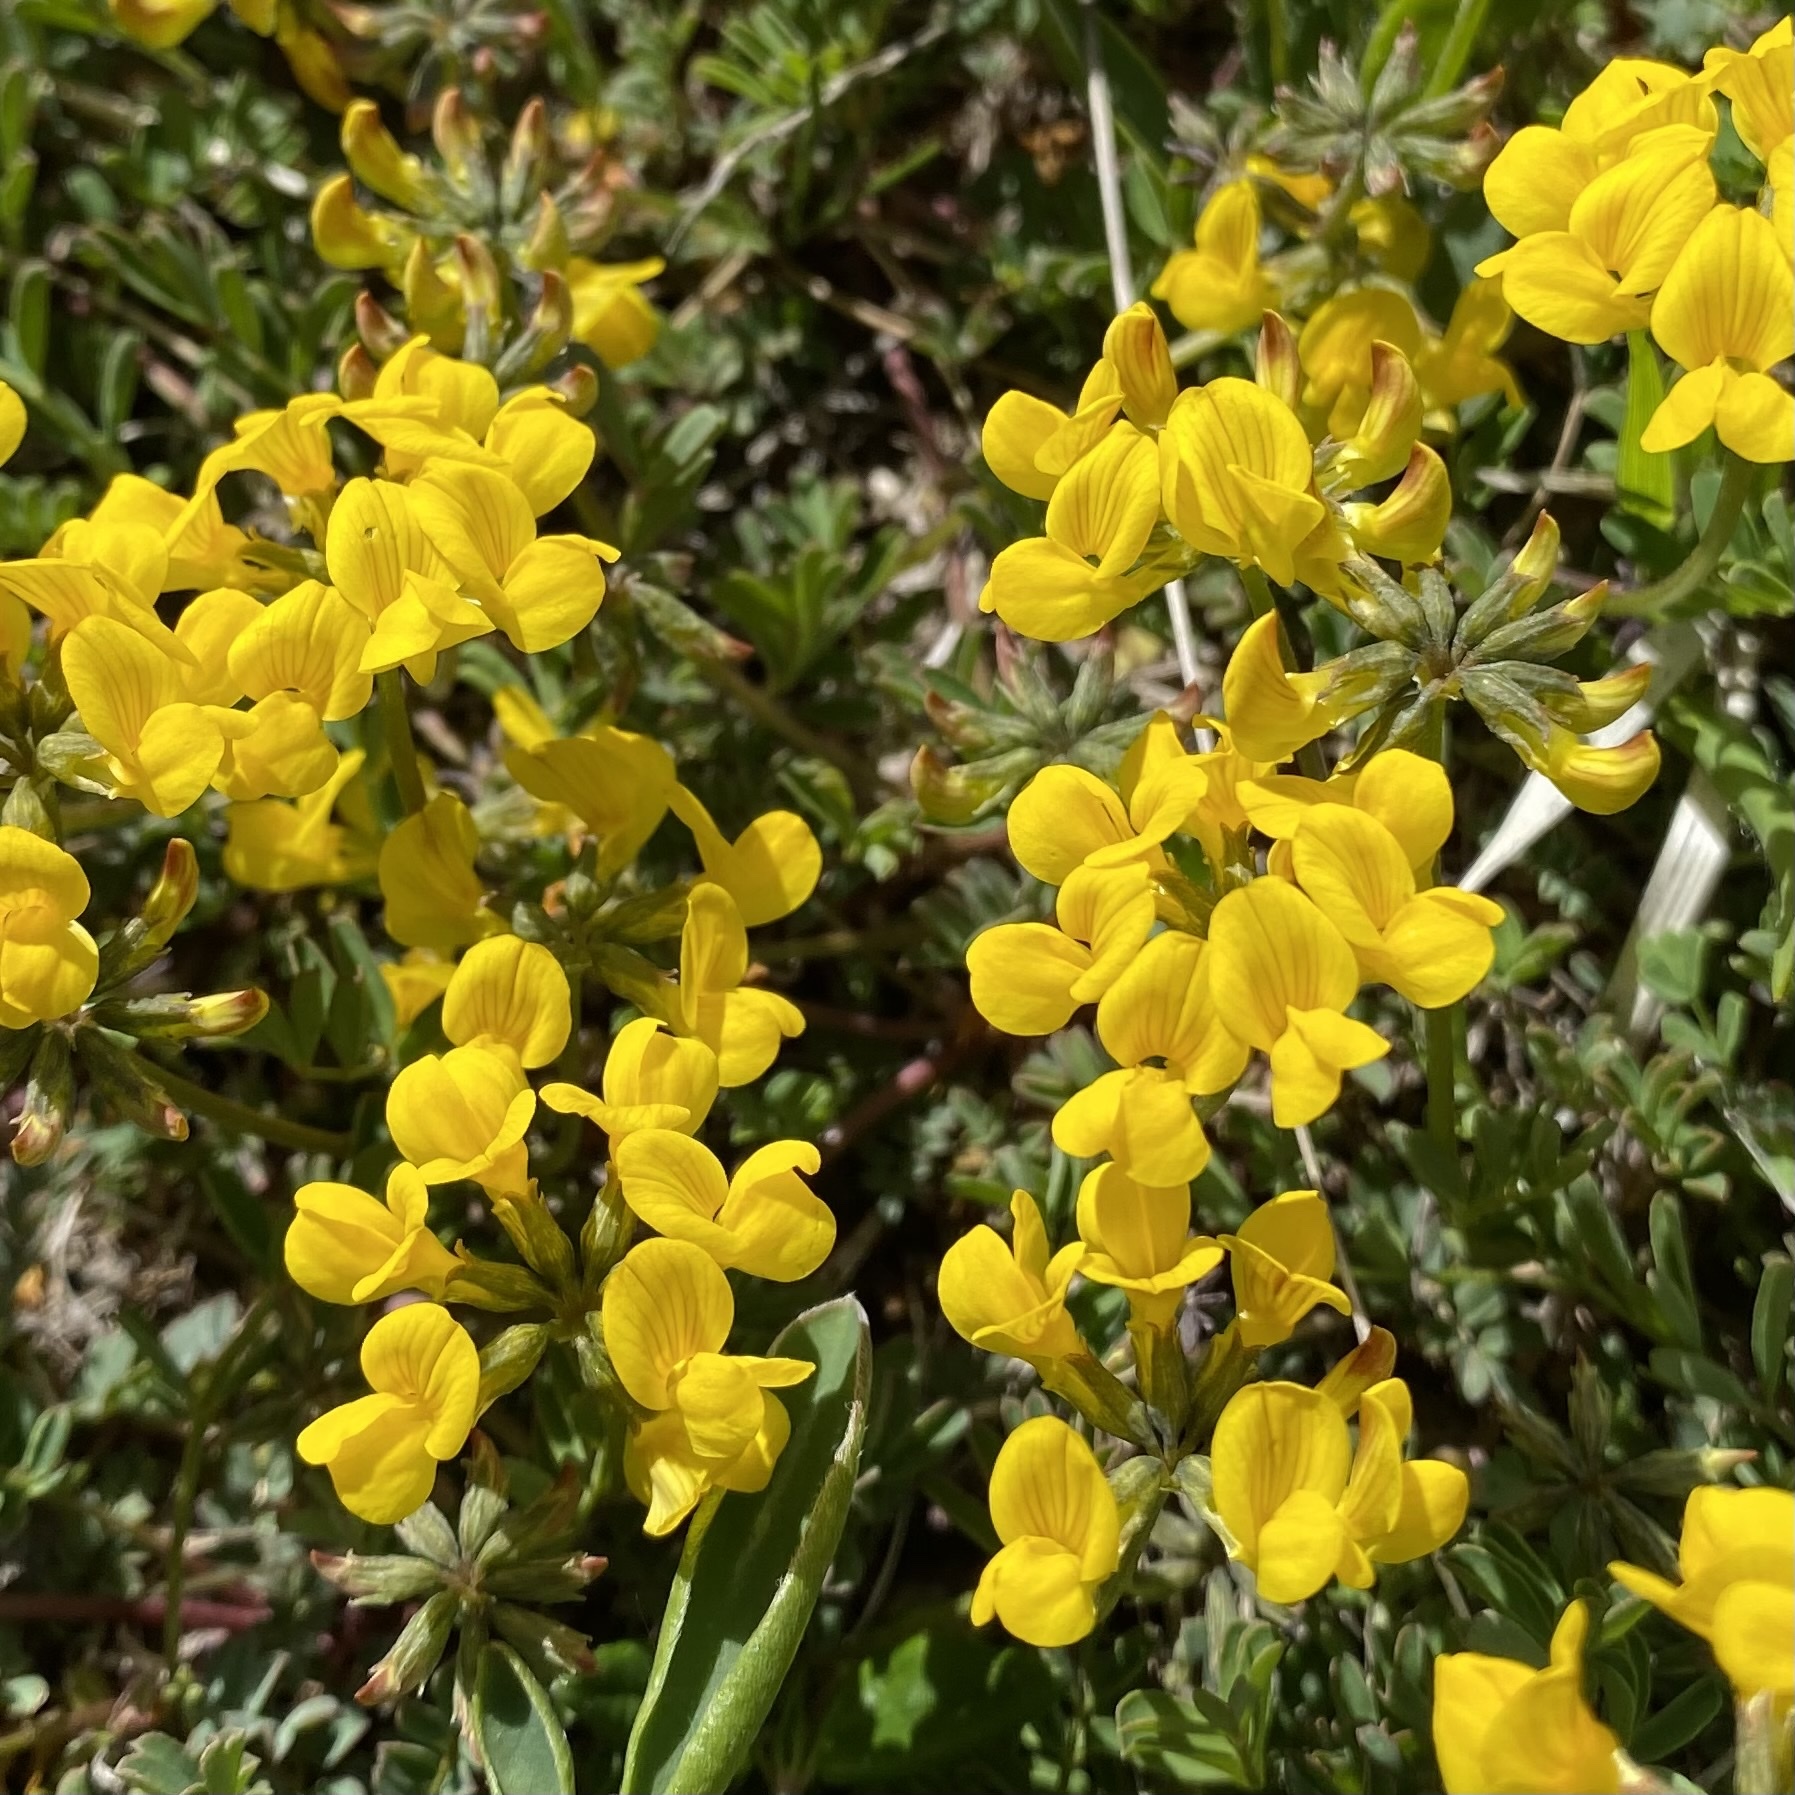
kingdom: Plantae
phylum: Tracheophyta
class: Magnoliopsida
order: Fabales
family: Fabaceae
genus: Hippocrepis
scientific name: Hippocrepis comosa
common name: Horseshoe vetch
